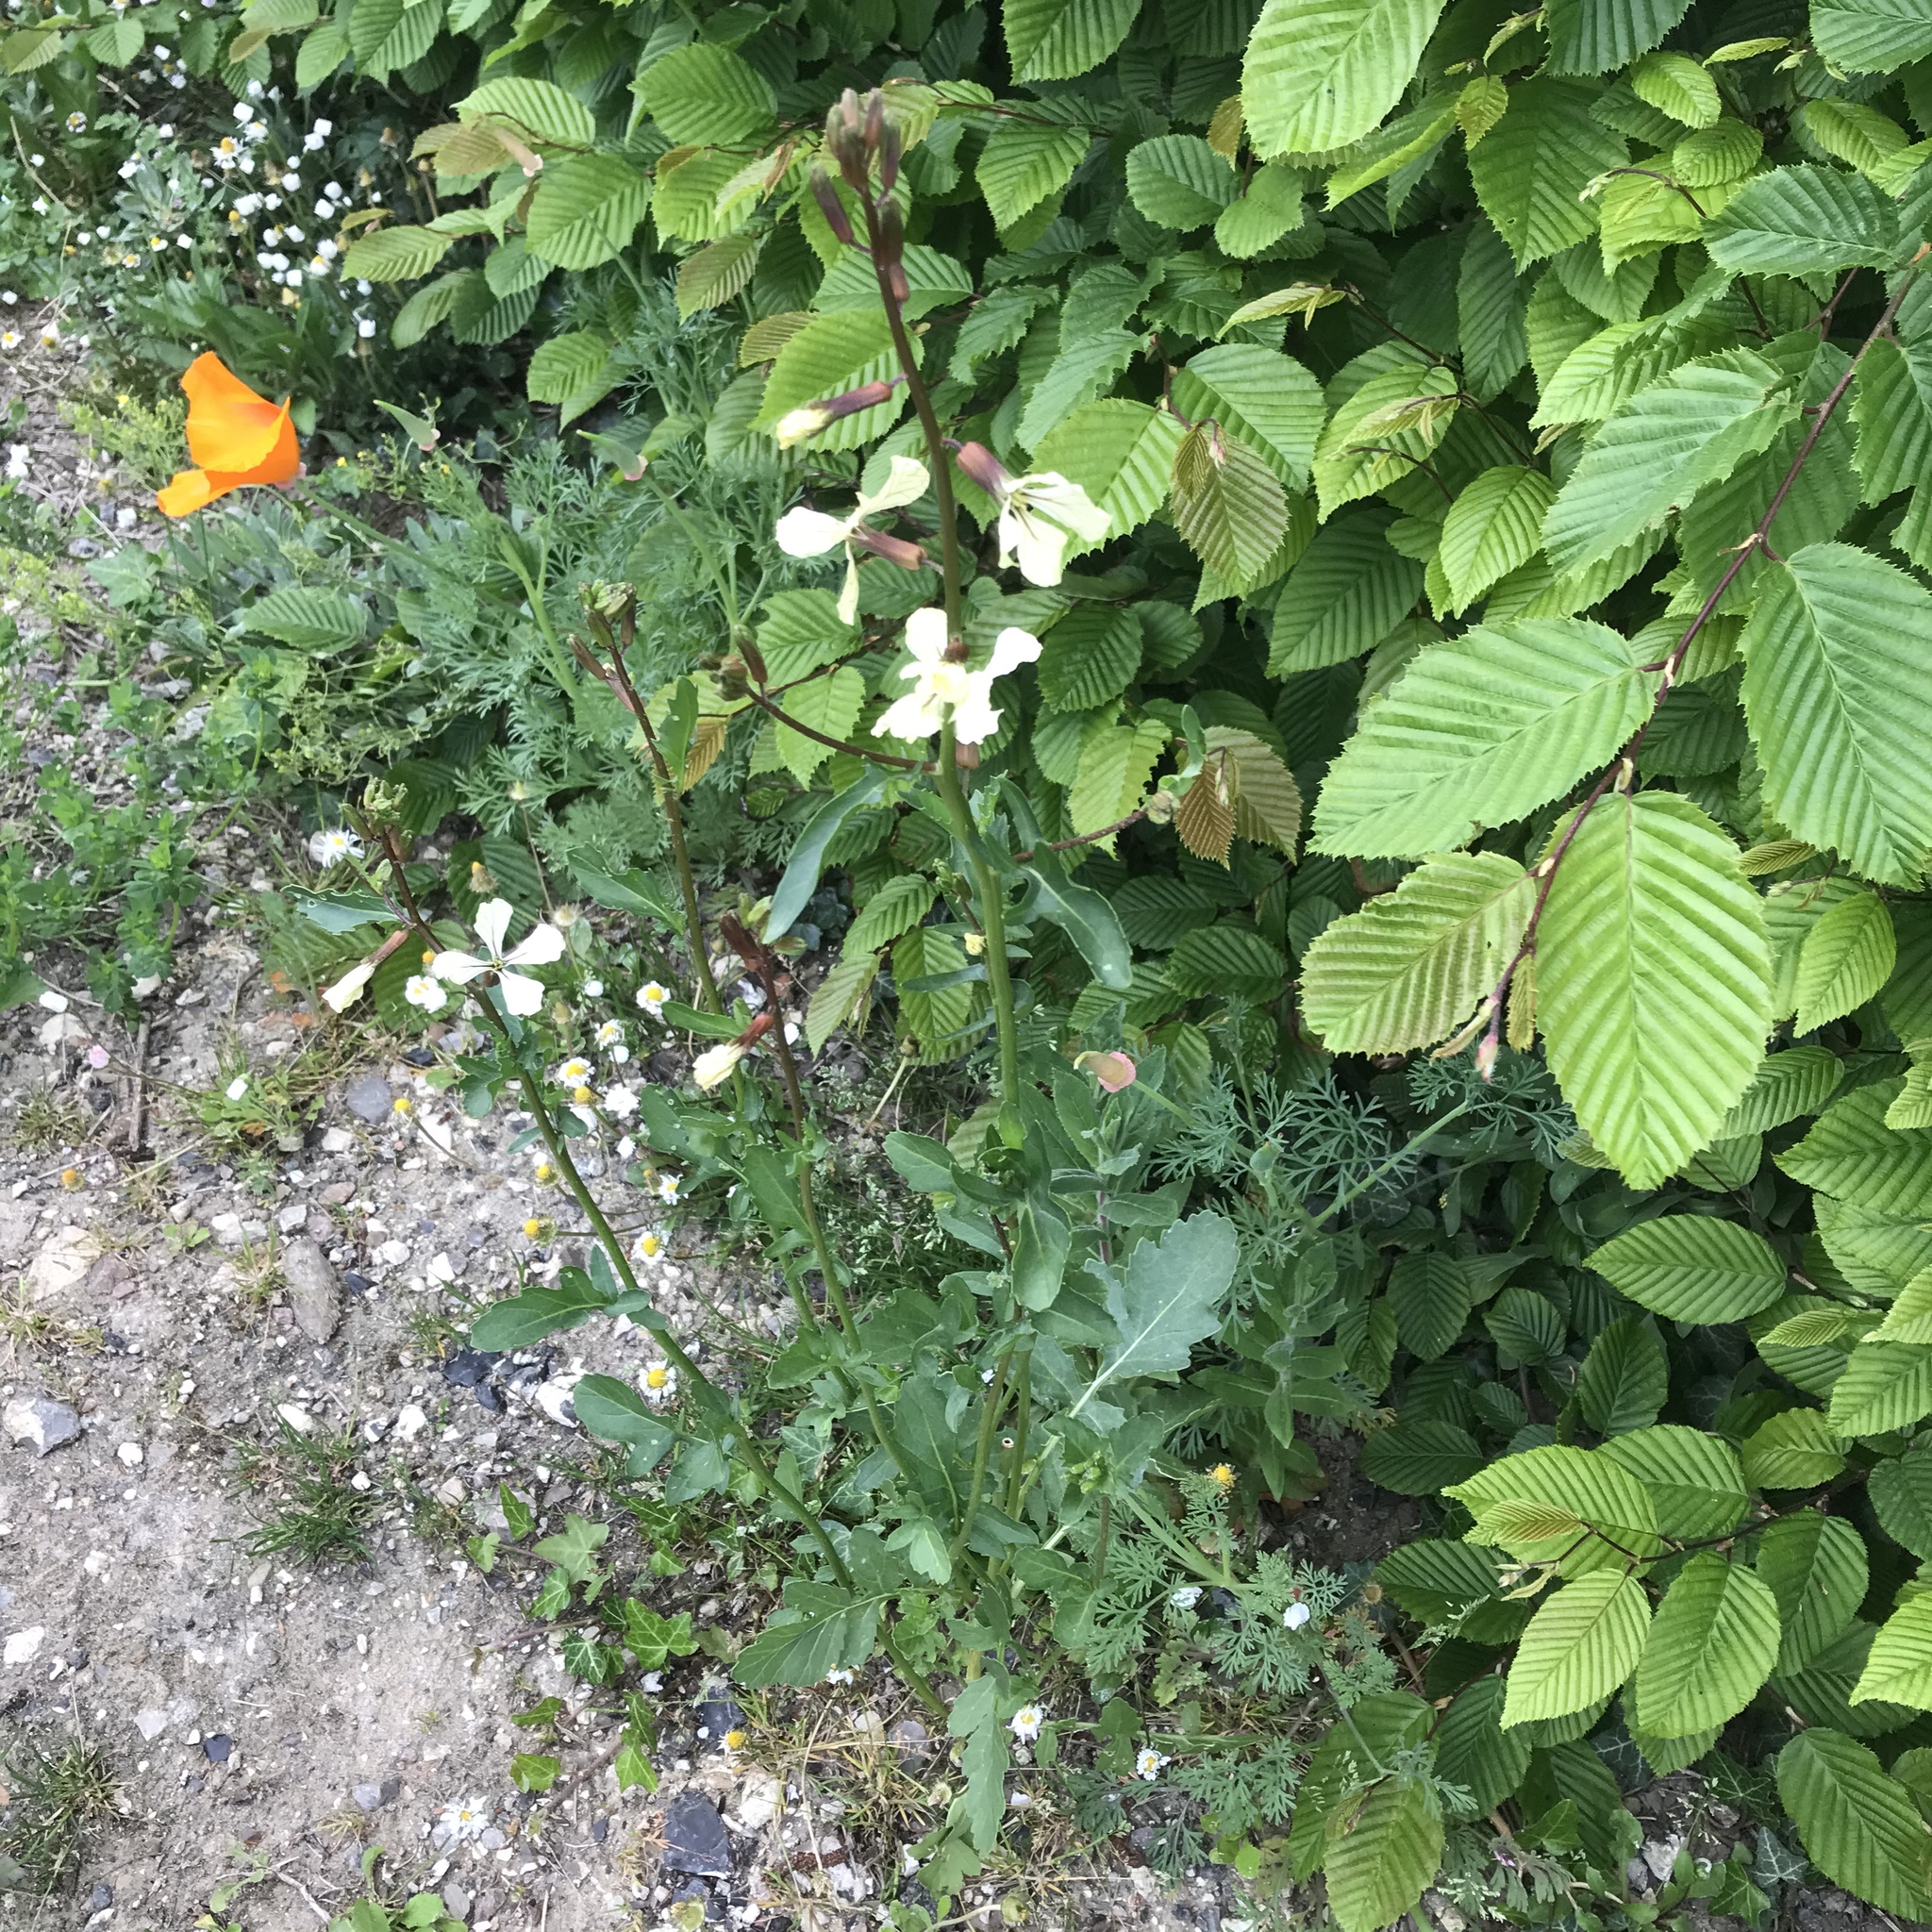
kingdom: Plantae
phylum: Tracheophyta
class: Magnoliopsida
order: Brassicales
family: Brassicaceae
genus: Eruca
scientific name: Eruca vesicaria
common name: Garden rocket
